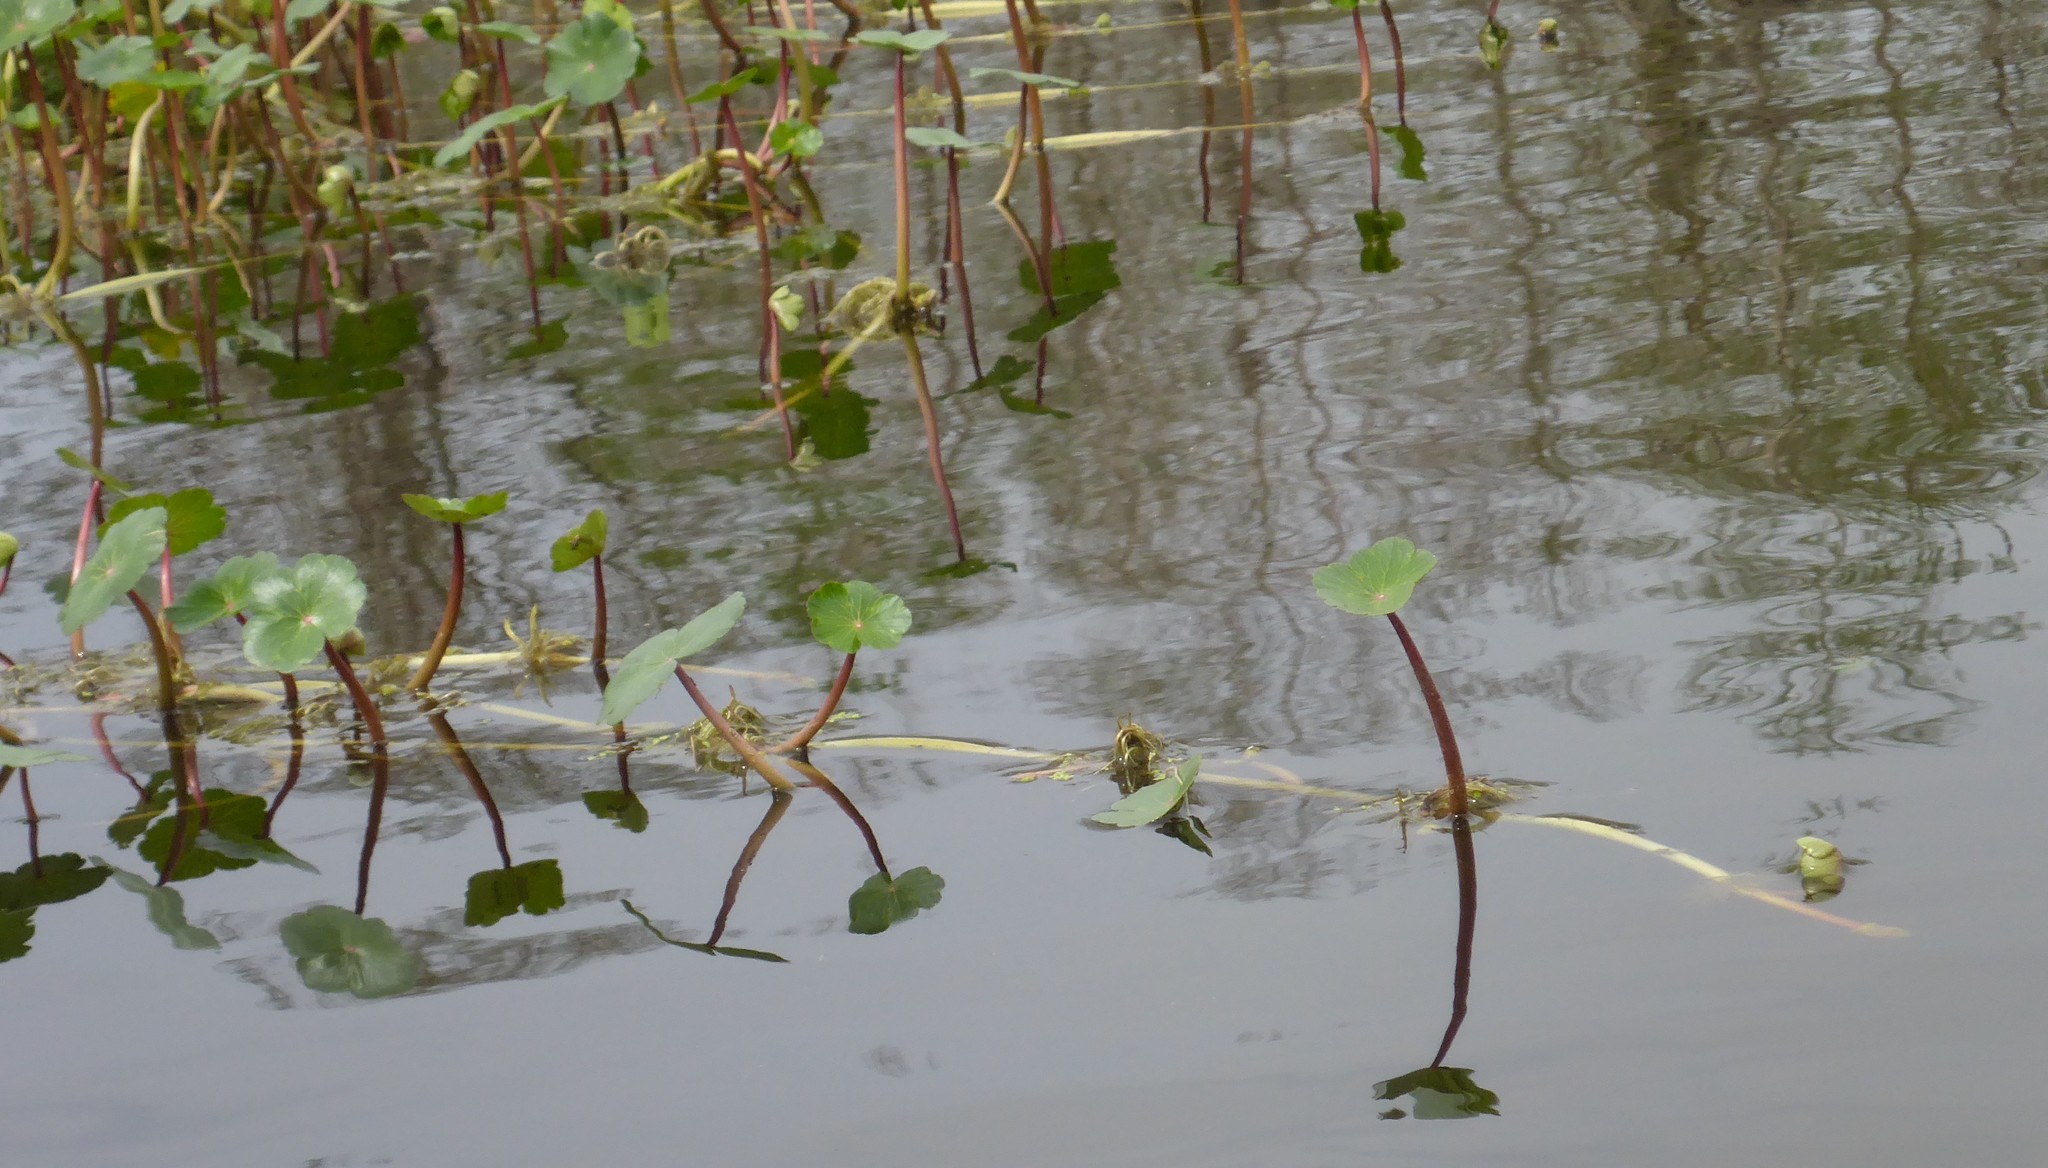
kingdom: Plantae
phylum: Tracheophyta
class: Magnoliopsida
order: Apiales
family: Araliaceae
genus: Hydrocotyle
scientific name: Hydrocotyle ranunculoides
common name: Floating pennywort
